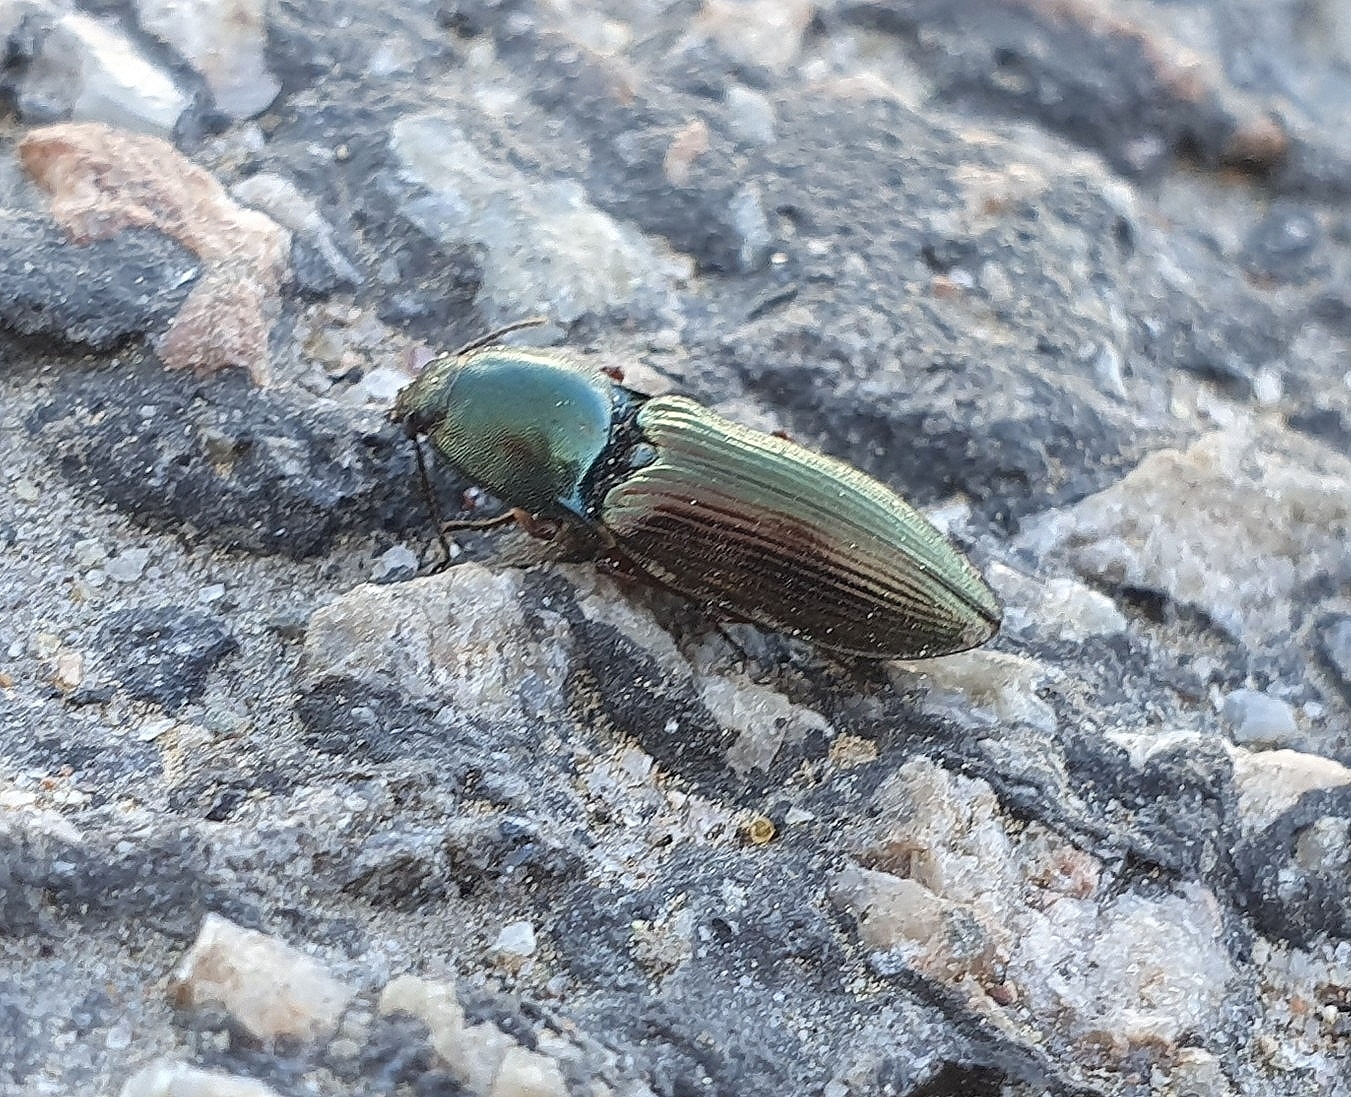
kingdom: Animalia
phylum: Arthropoda
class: Insecta
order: Coleoptera
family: Elateridae
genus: Selatosomus
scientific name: Selatosomus aeneus
